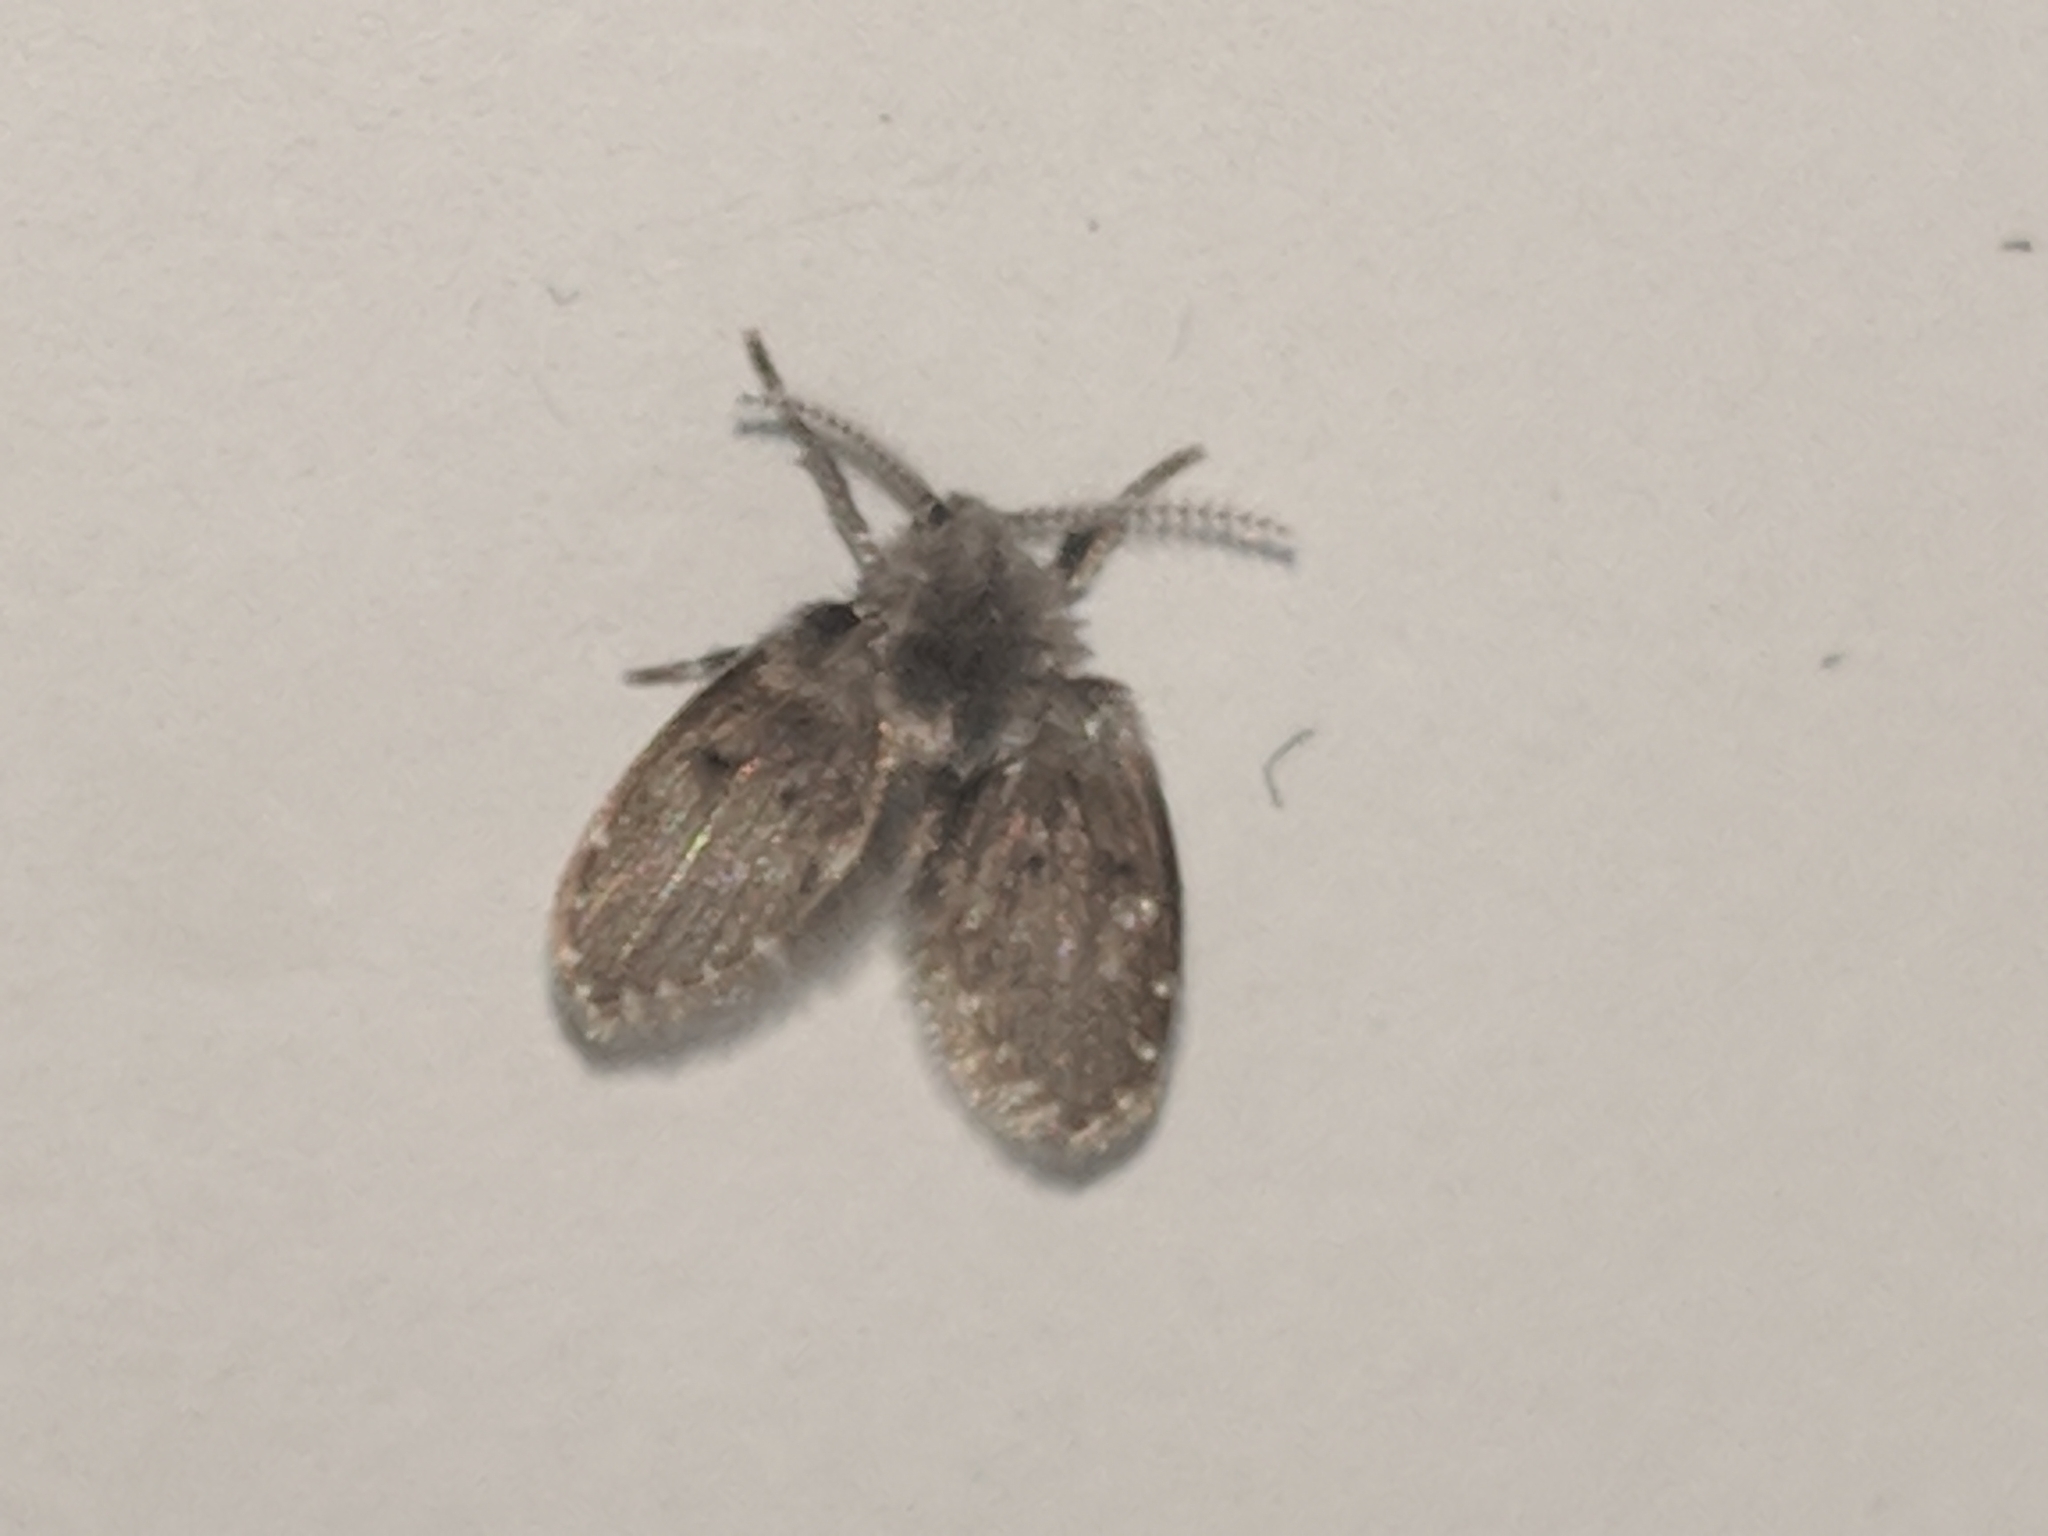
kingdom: Animalia
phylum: Arthropoda
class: Insecta
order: Diptera
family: Psychodidae
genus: Clogmia
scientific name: Clogmia albipunctatus
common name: White-spotted moth fly
